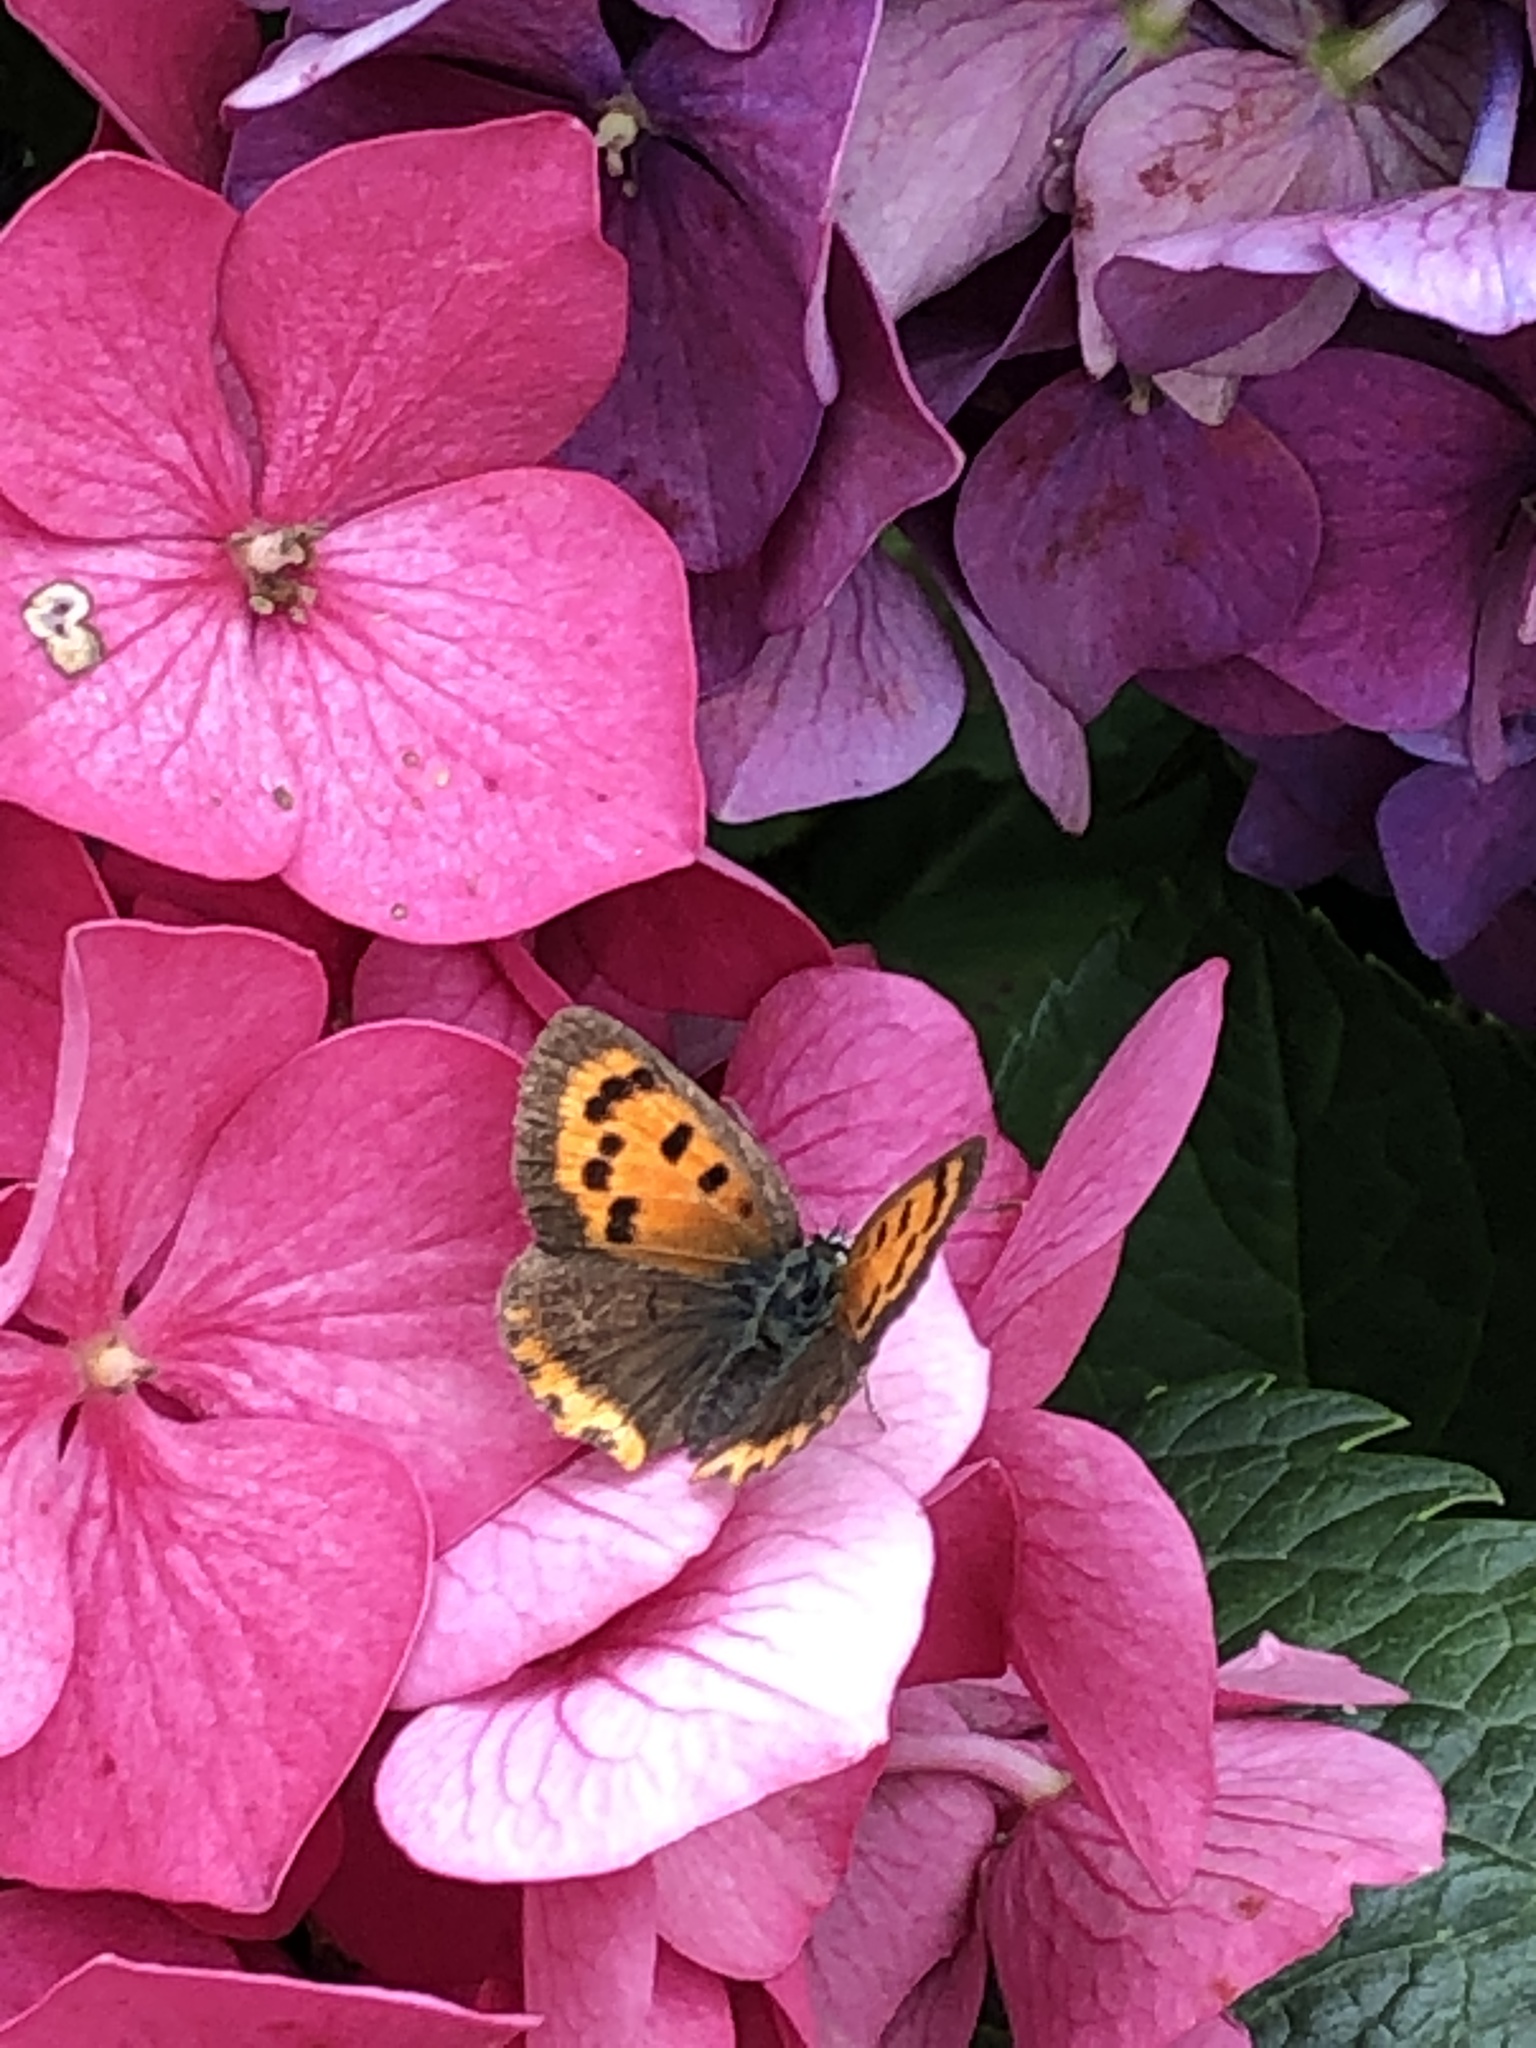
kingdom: Animalia
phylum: Arthropoda
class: Insecta
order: Lepidoptera
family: Lycaenidae
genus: Lycaena
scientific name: Lycaena phlaeas
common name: Small copper
